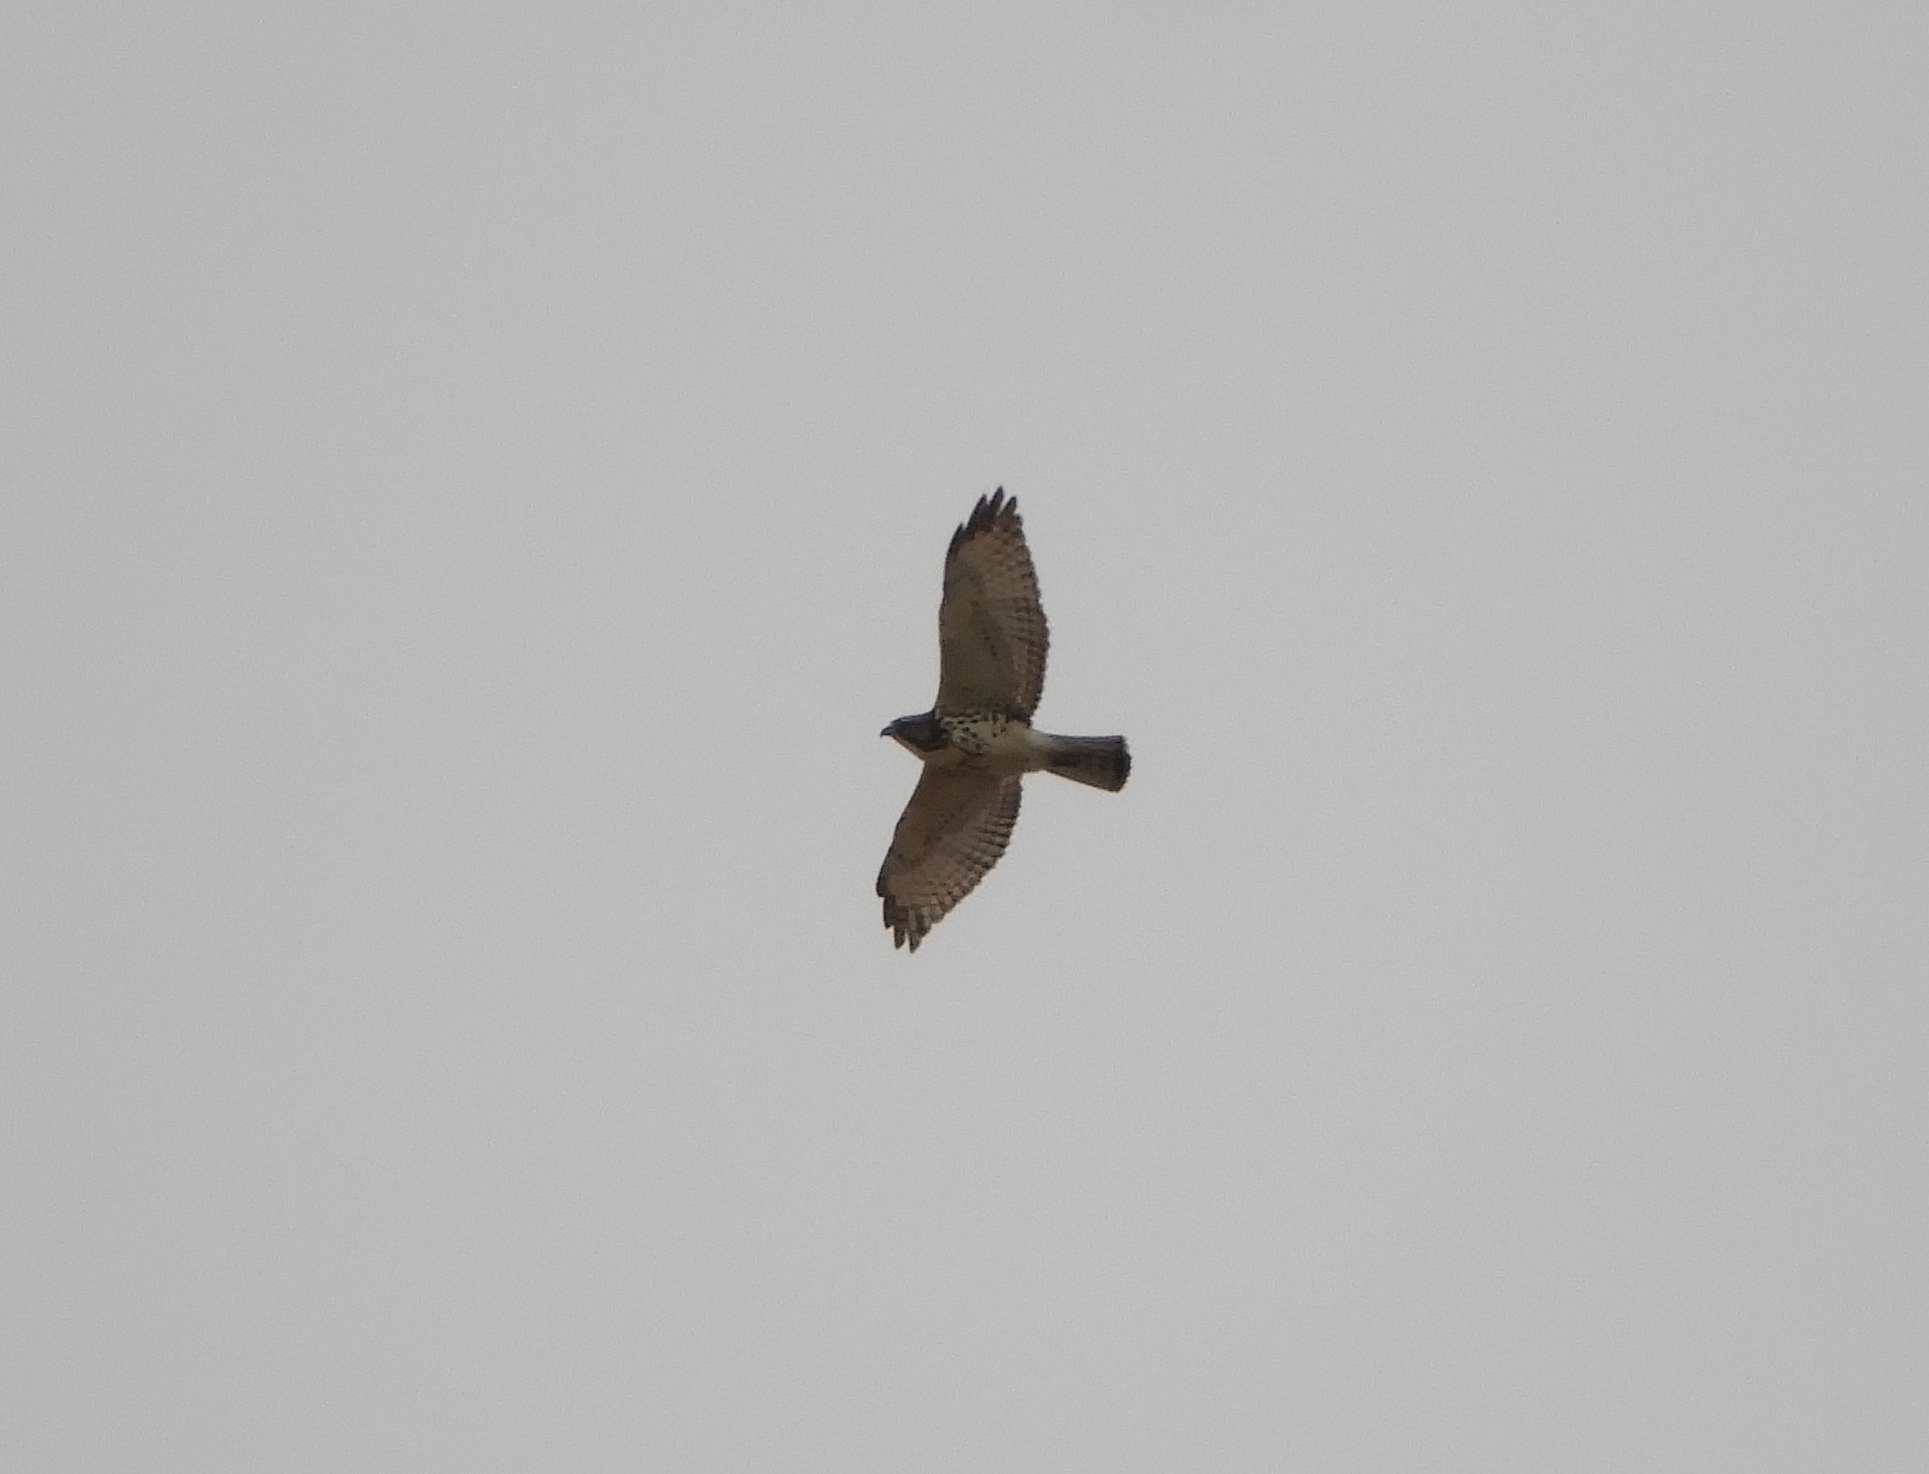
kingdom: Animalia
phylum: Chordata
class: Aves
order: Accipitriformes
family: Accipitridae
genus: Buteo
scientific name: Buteo platypterus
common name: Broad-winged hawk
